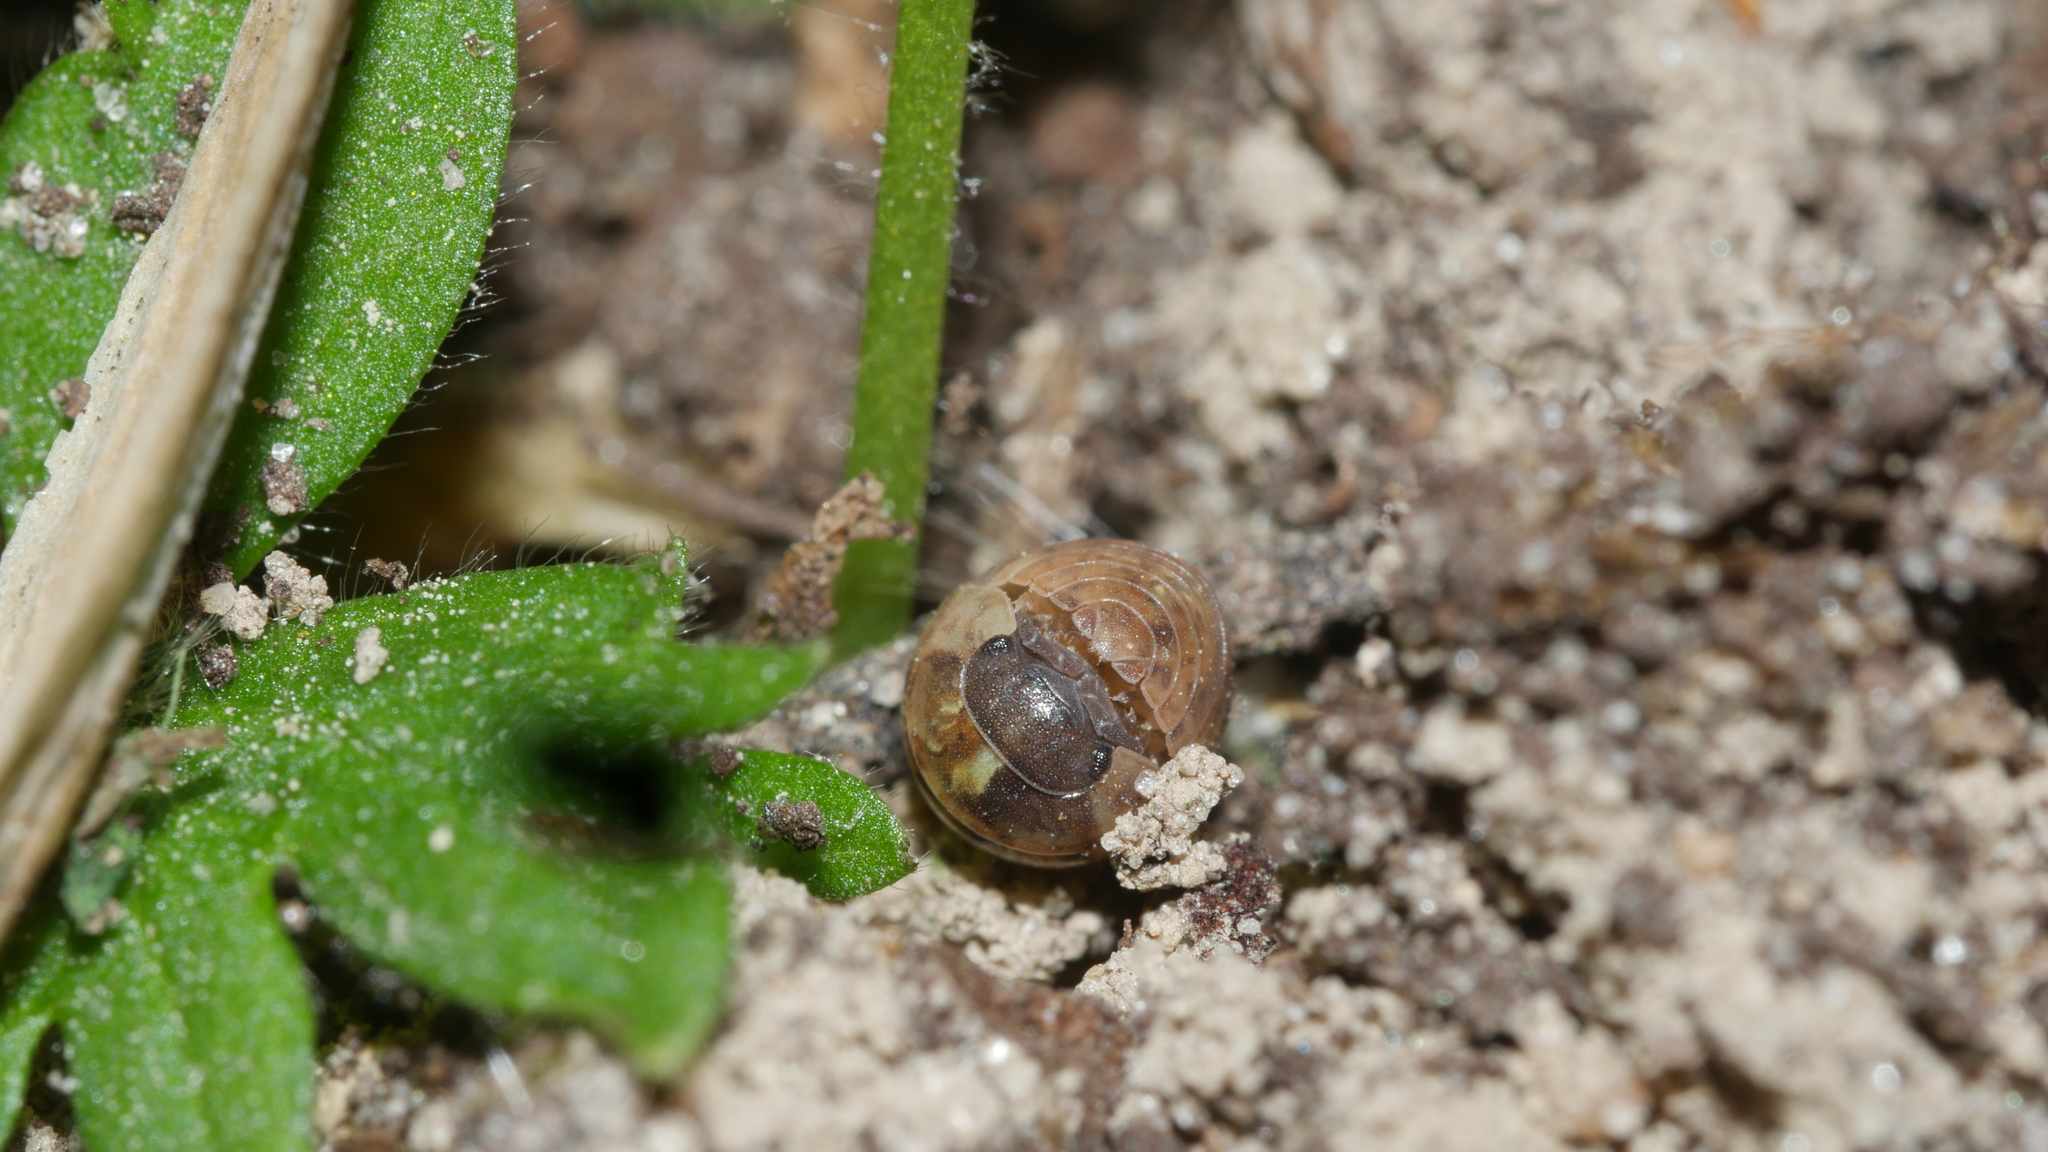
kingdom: Animalia
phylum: Arthropoda
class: Malacostraca
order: Isopoda
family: Armadillidiidae
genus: Armadillidium
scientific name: Armadillidium vulgare
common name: Common pill woodlouse
